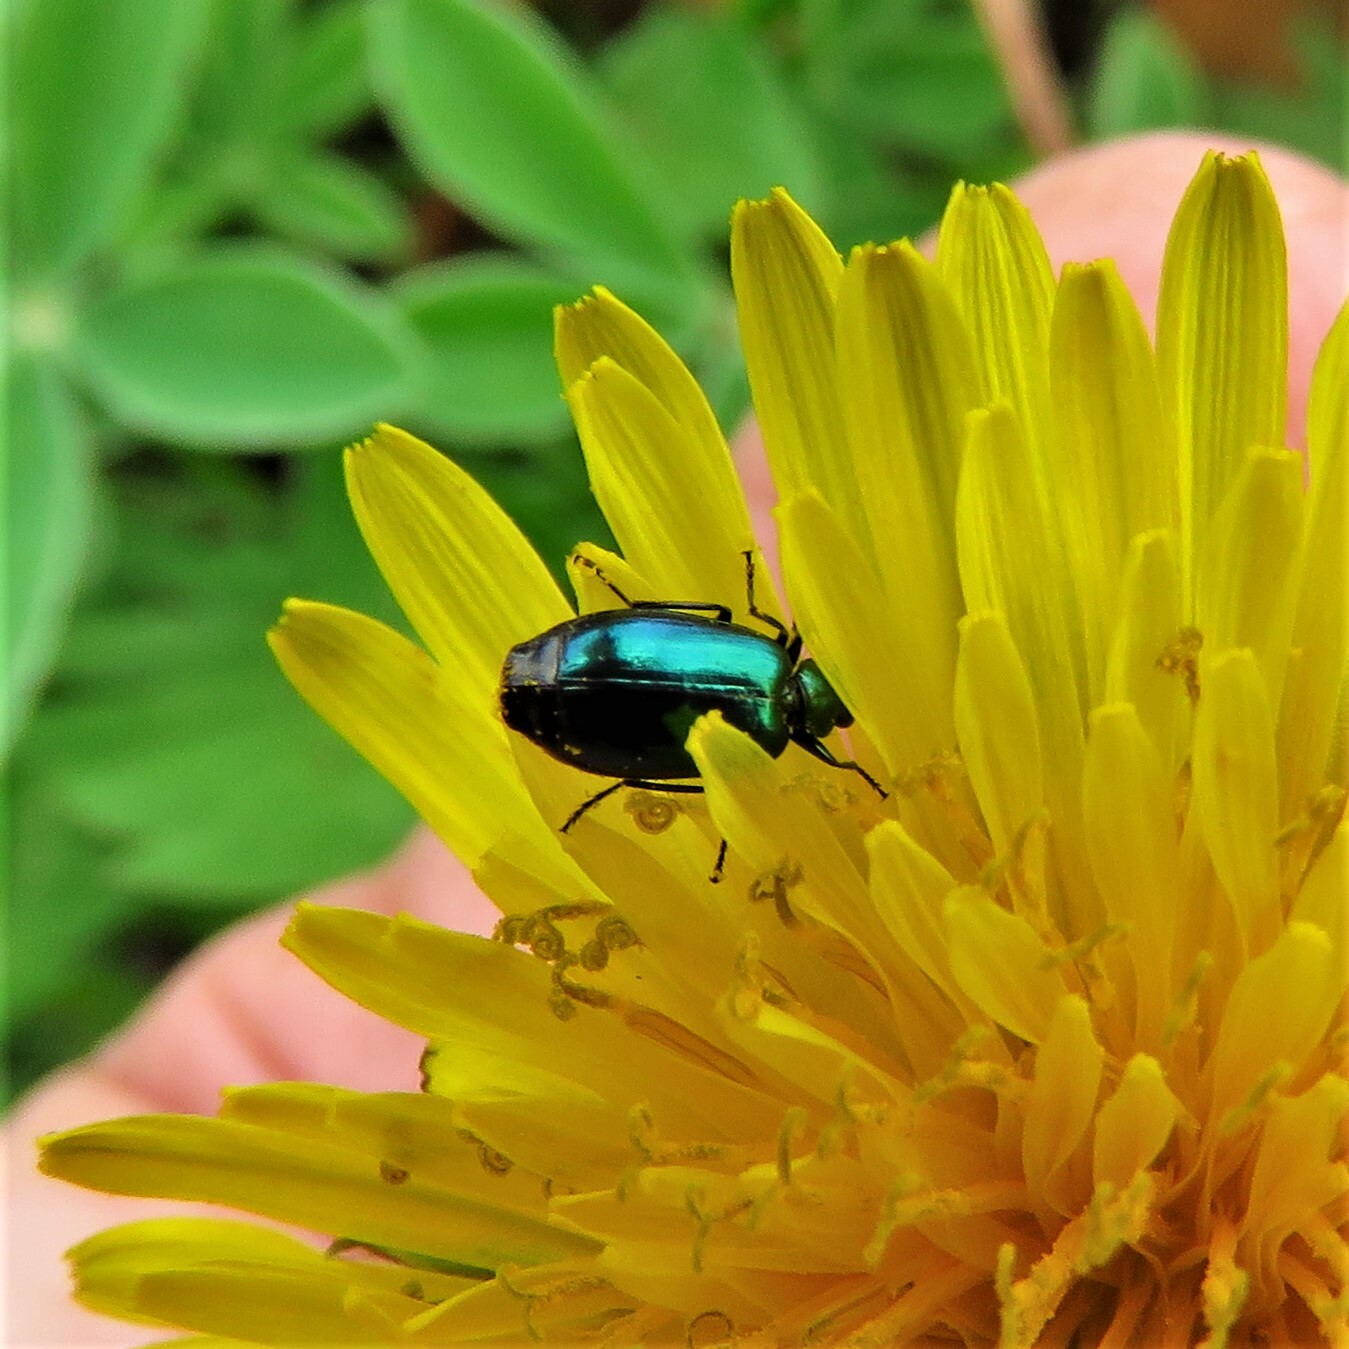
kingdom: Animalia
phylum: Arthropoda
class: Insecta
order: Coleoptera
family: Carabidae
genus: Lebia
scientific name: Lebia viridis
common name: Flower lebia beetle
